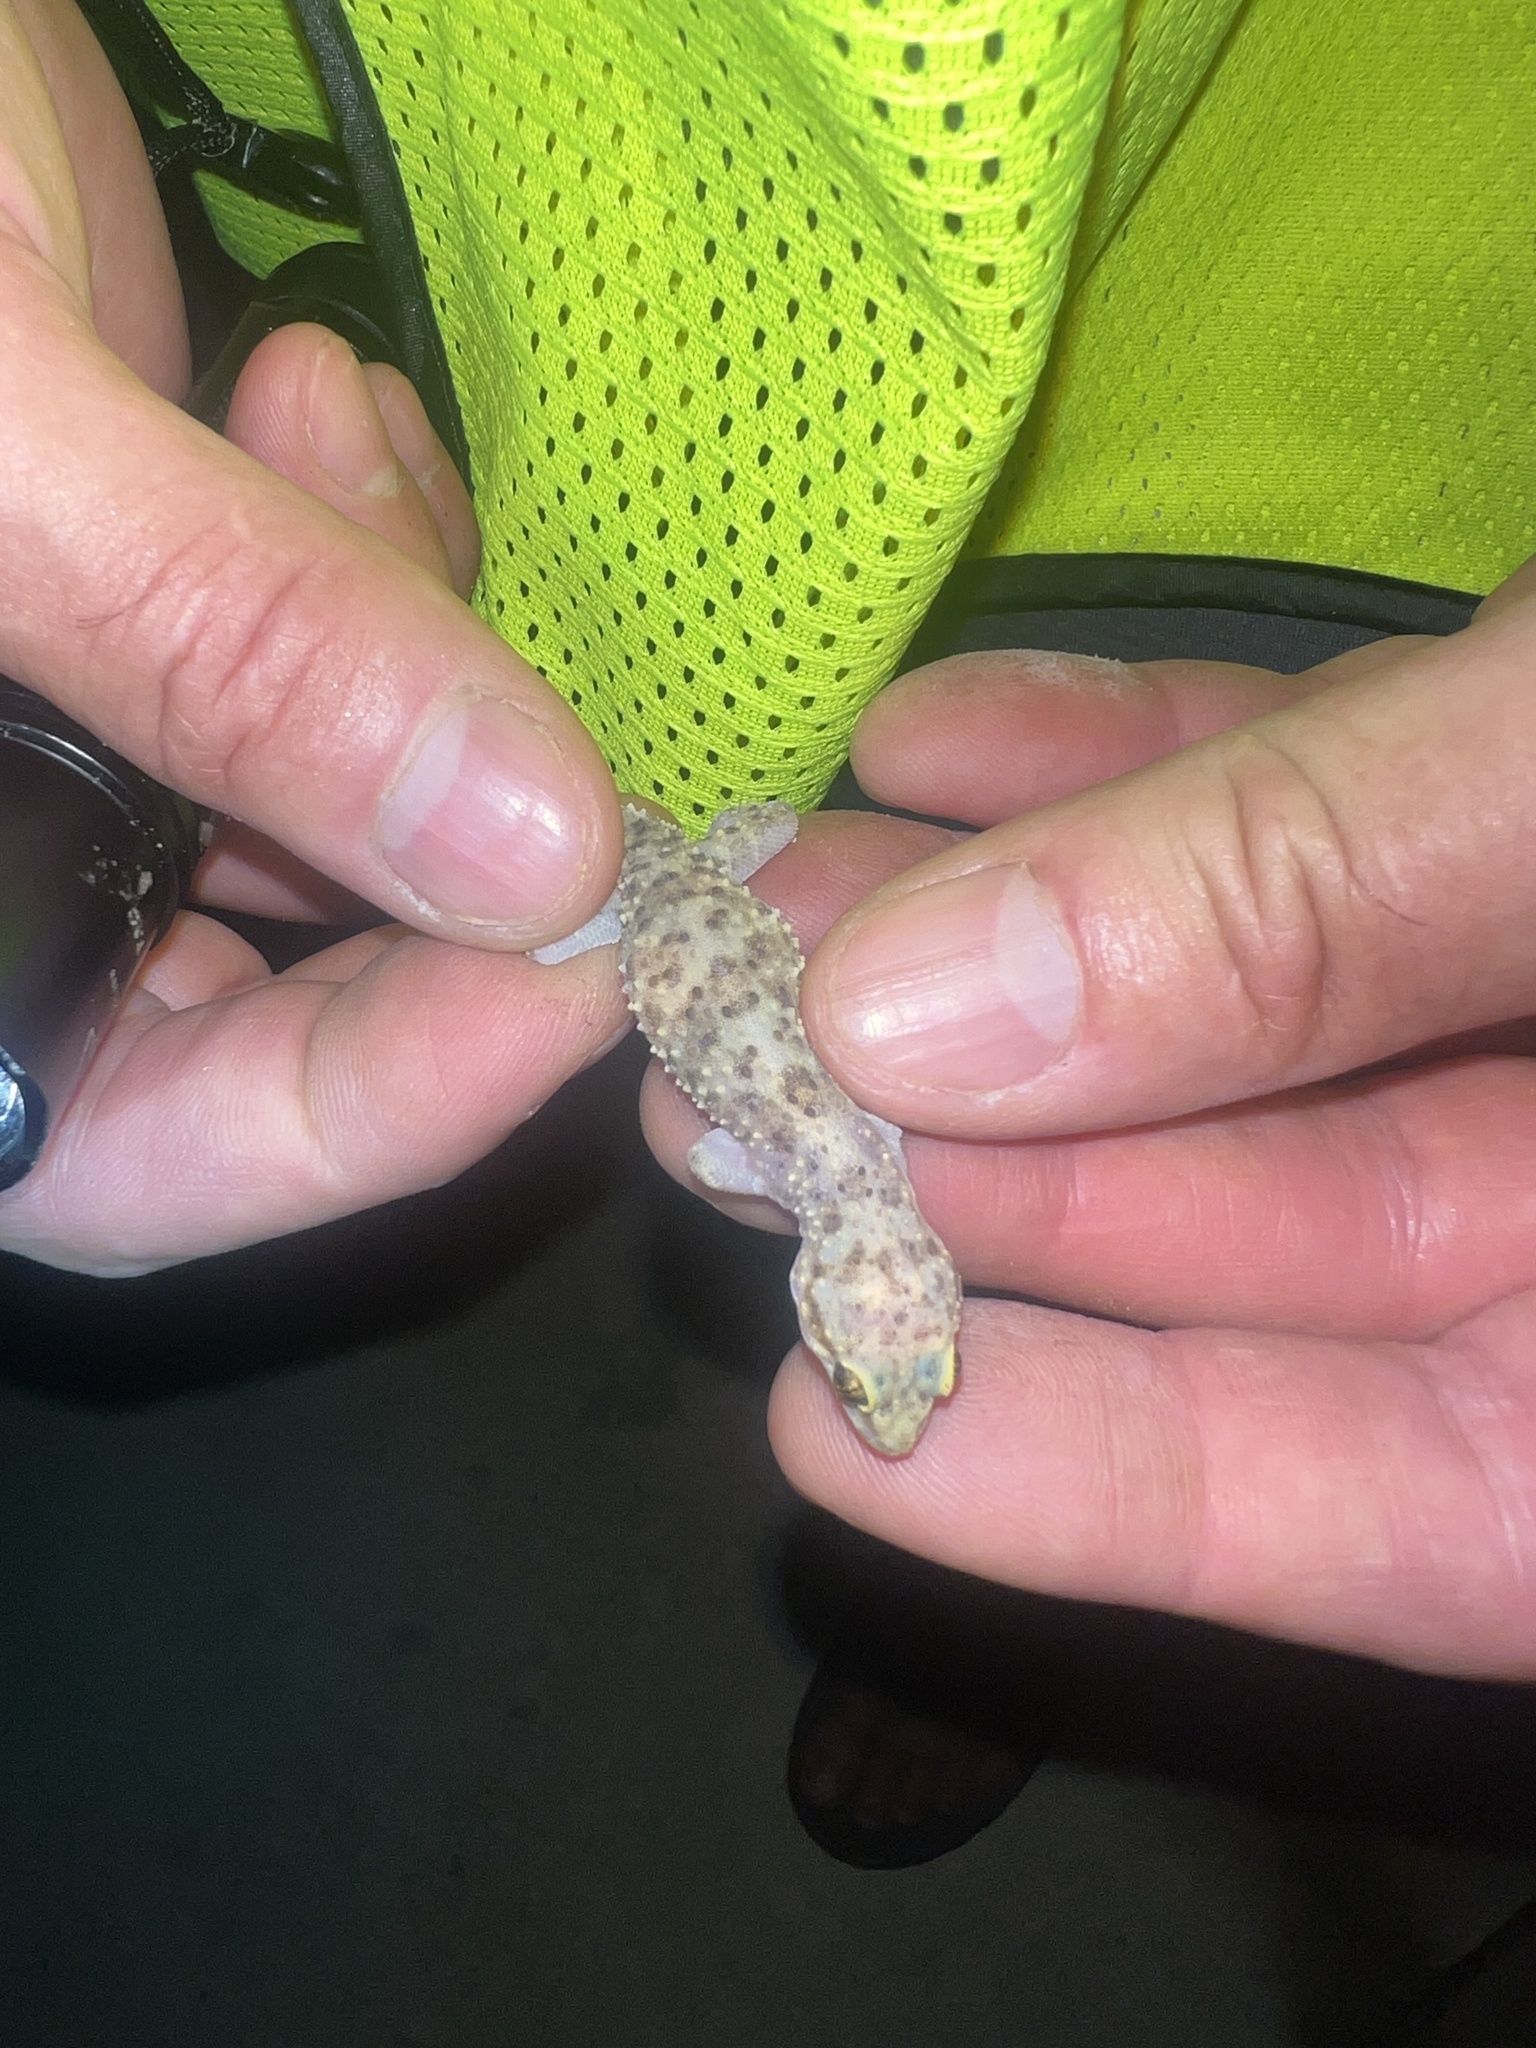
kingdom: Animalia
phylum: Chordata
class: Squamata
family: Gekkonidae
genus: Hemidactylus
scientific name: Hemidactylus turcicus
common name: Turkish gecko
